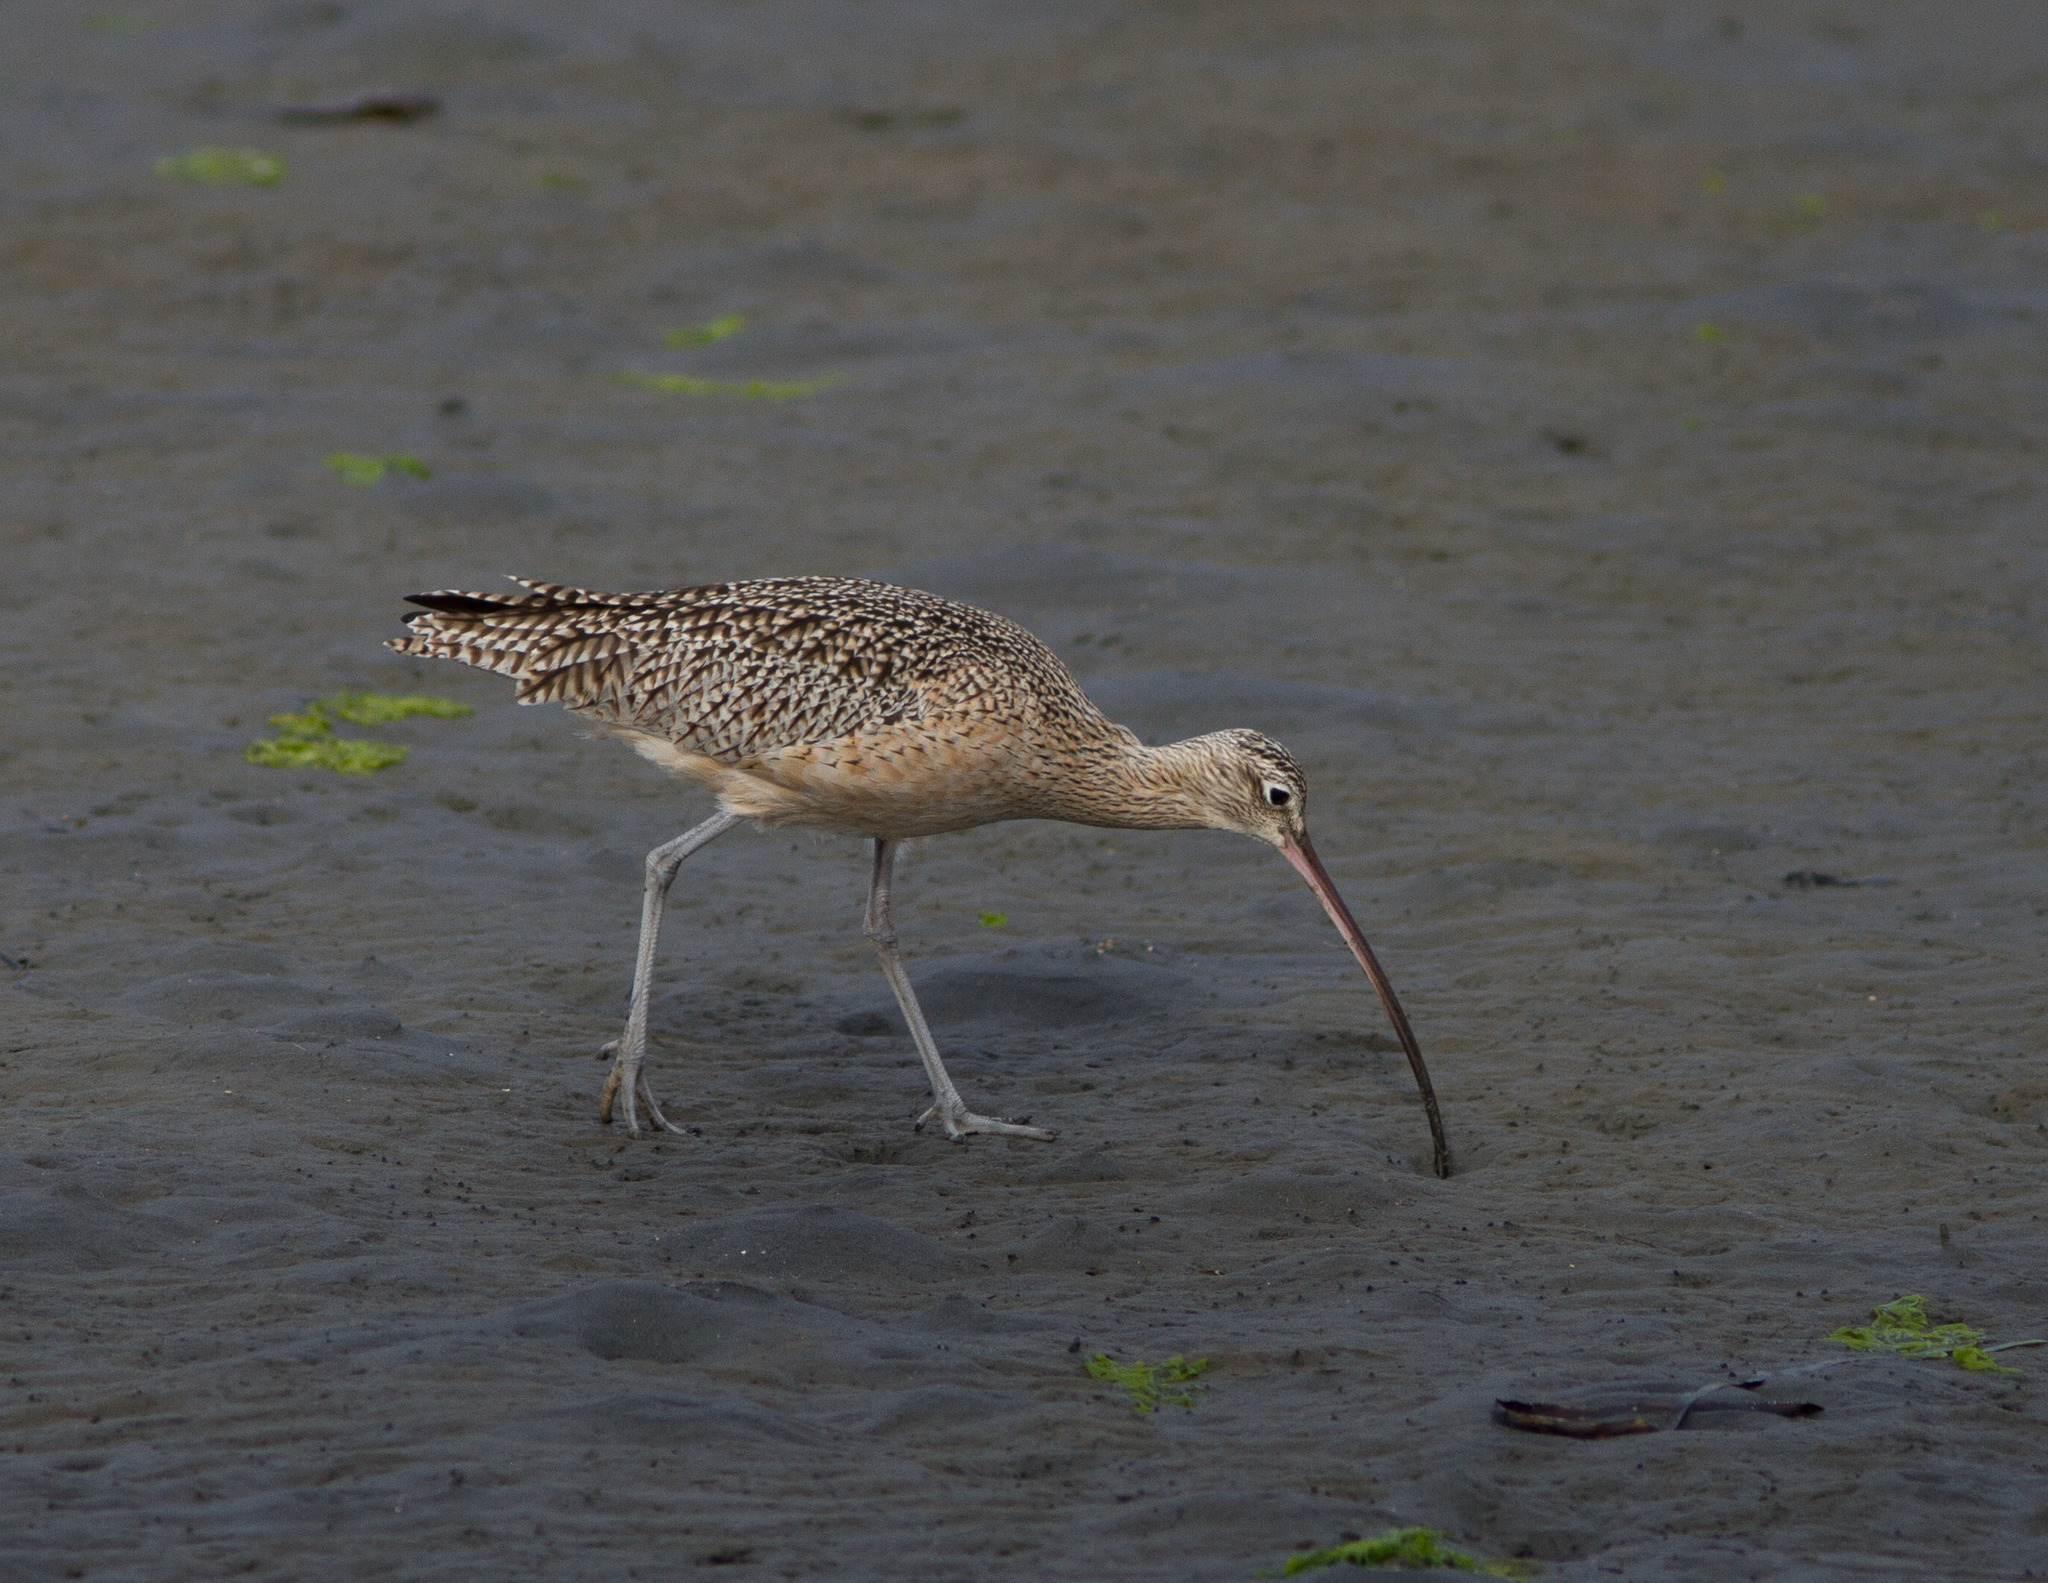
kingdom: Animalia
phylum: Chordata
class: Aves
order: Charadriiformes
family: Scolopacidae
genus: Numenius
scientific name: Numenius americanus
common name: Long-billed curlew
